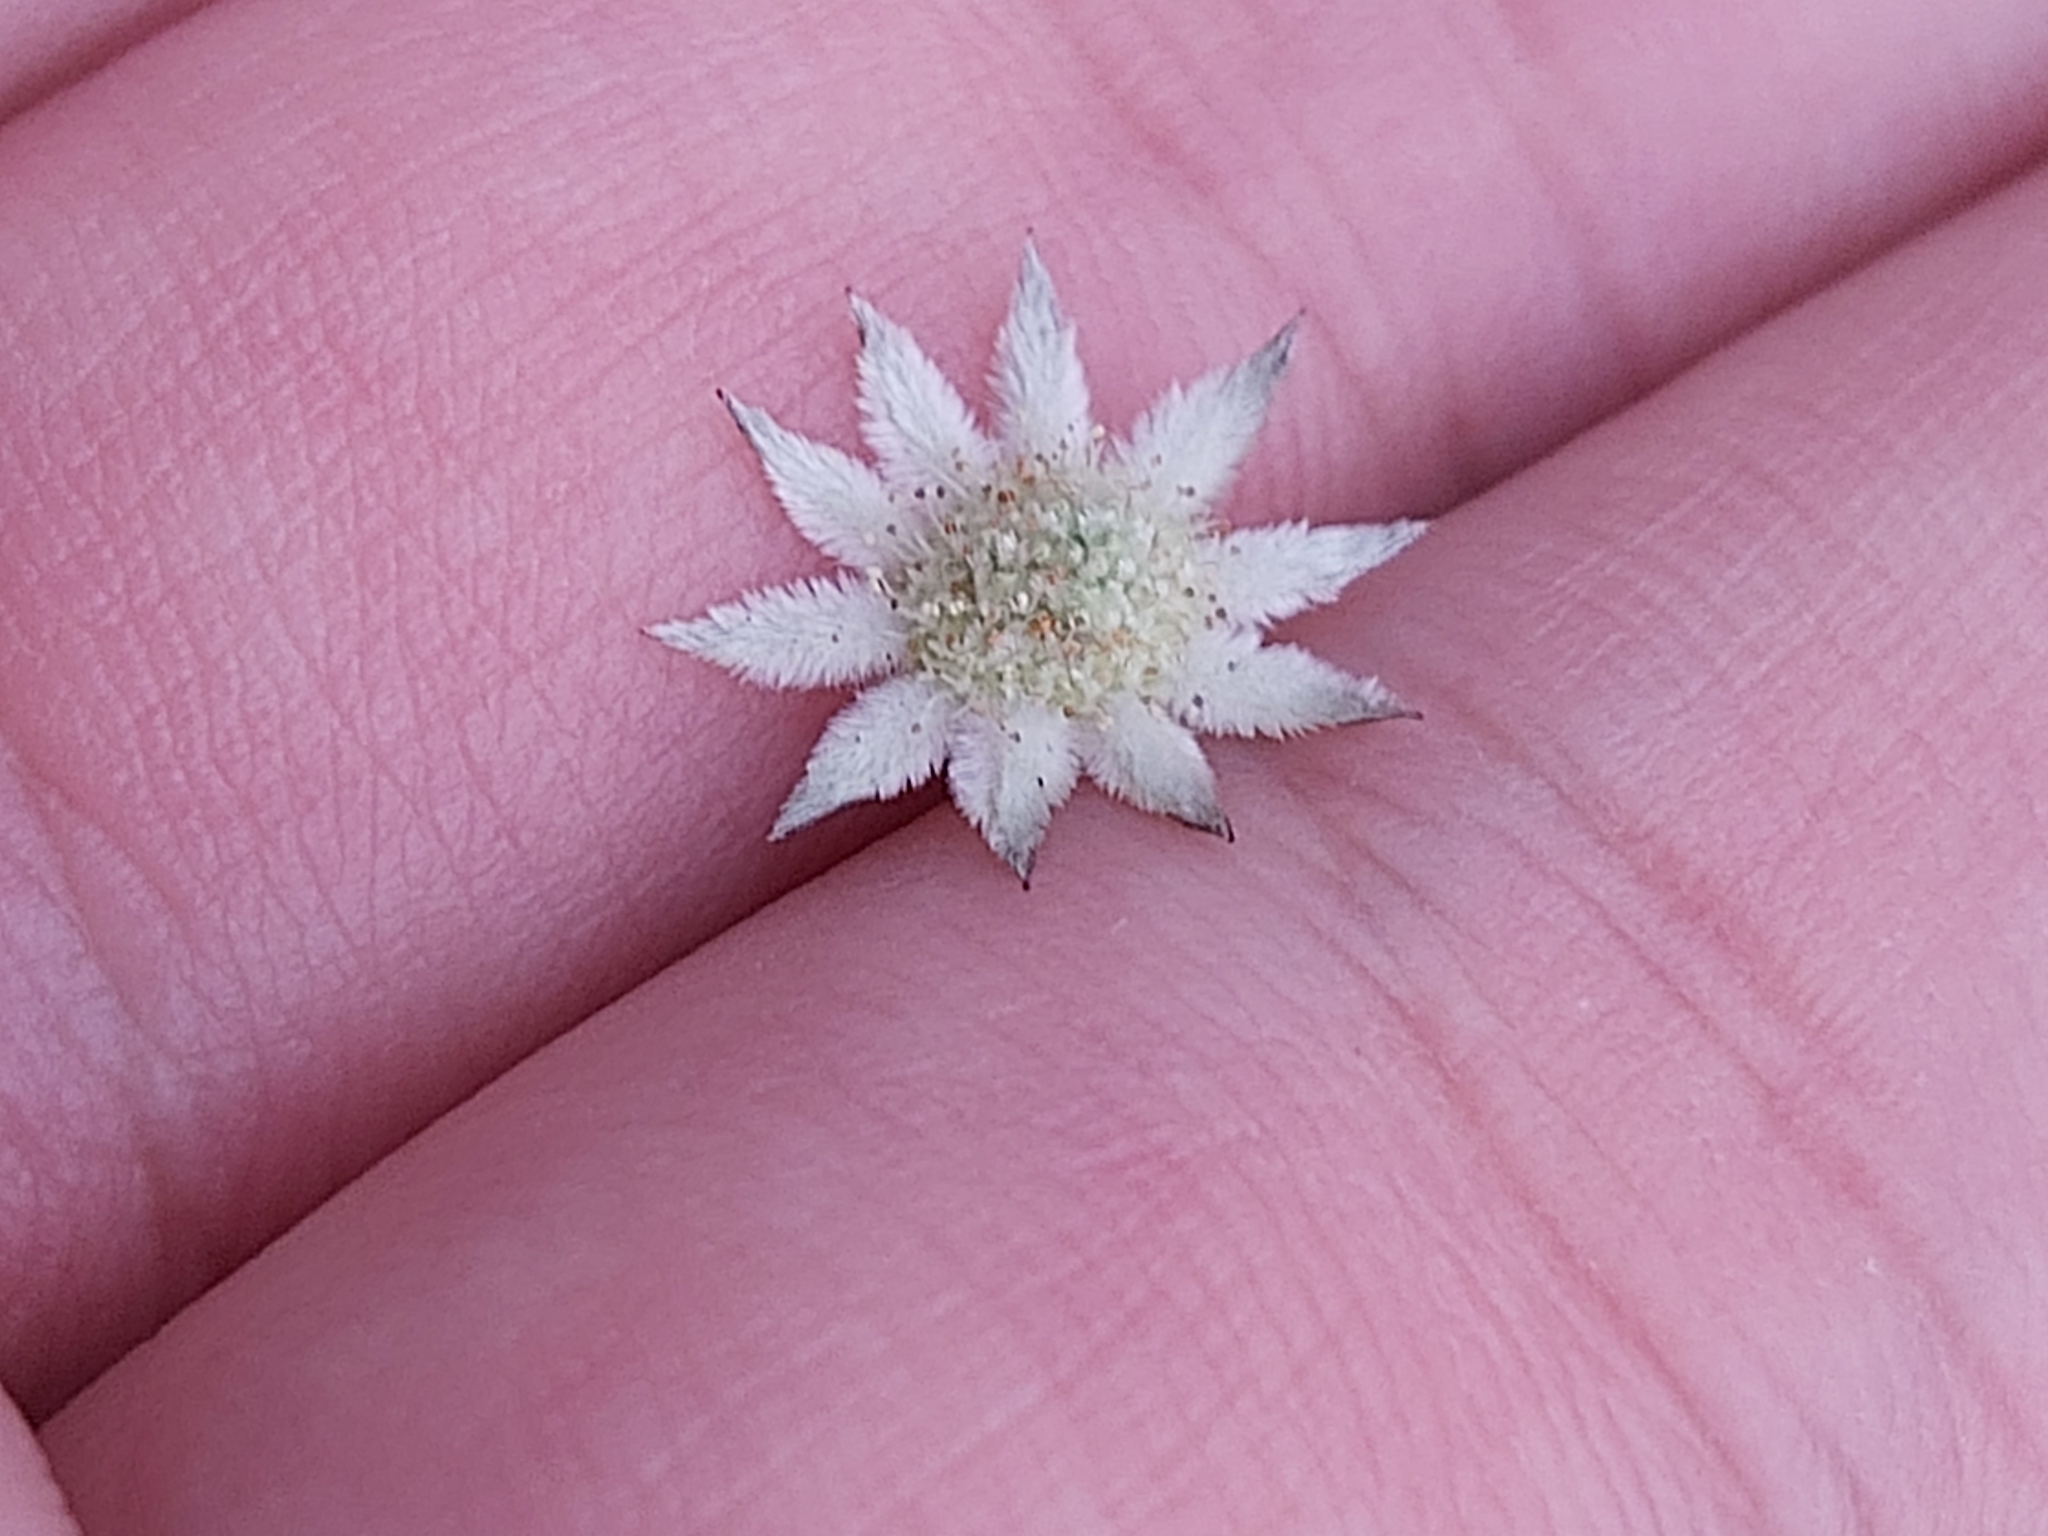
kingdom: Plantae
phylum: Tracheophyta
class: Magnoliopsida
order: Apiales
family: Apiaceae
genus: Actinotus
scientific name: Actinotus minor
